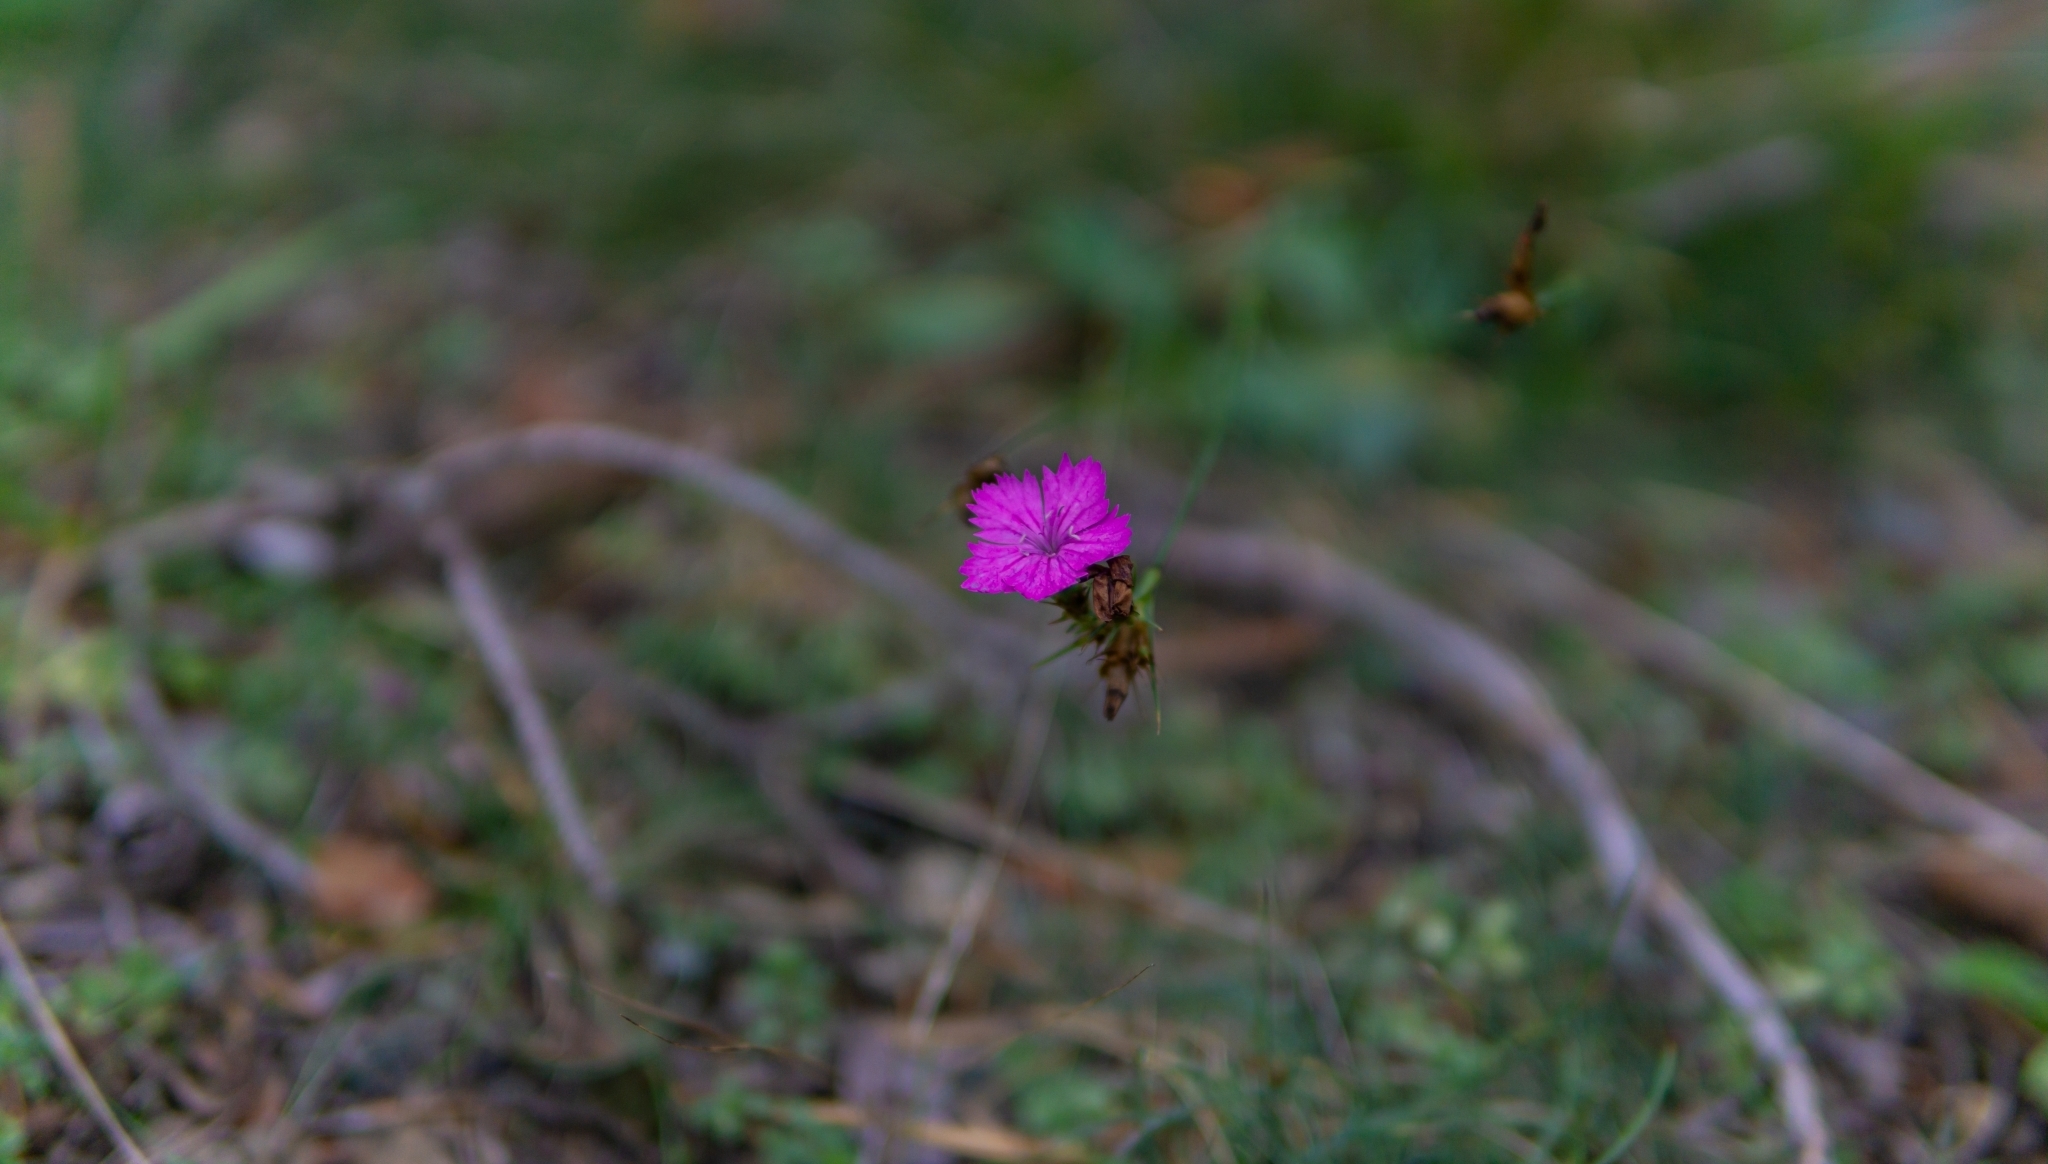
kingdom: Plantae
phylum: Tracheophyta
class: Magnoliopsida
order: Caryophyllales
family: Caryophyllaceae
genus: Dianthus
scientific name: Dianthus carthusianorum
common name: Carthusian pink
